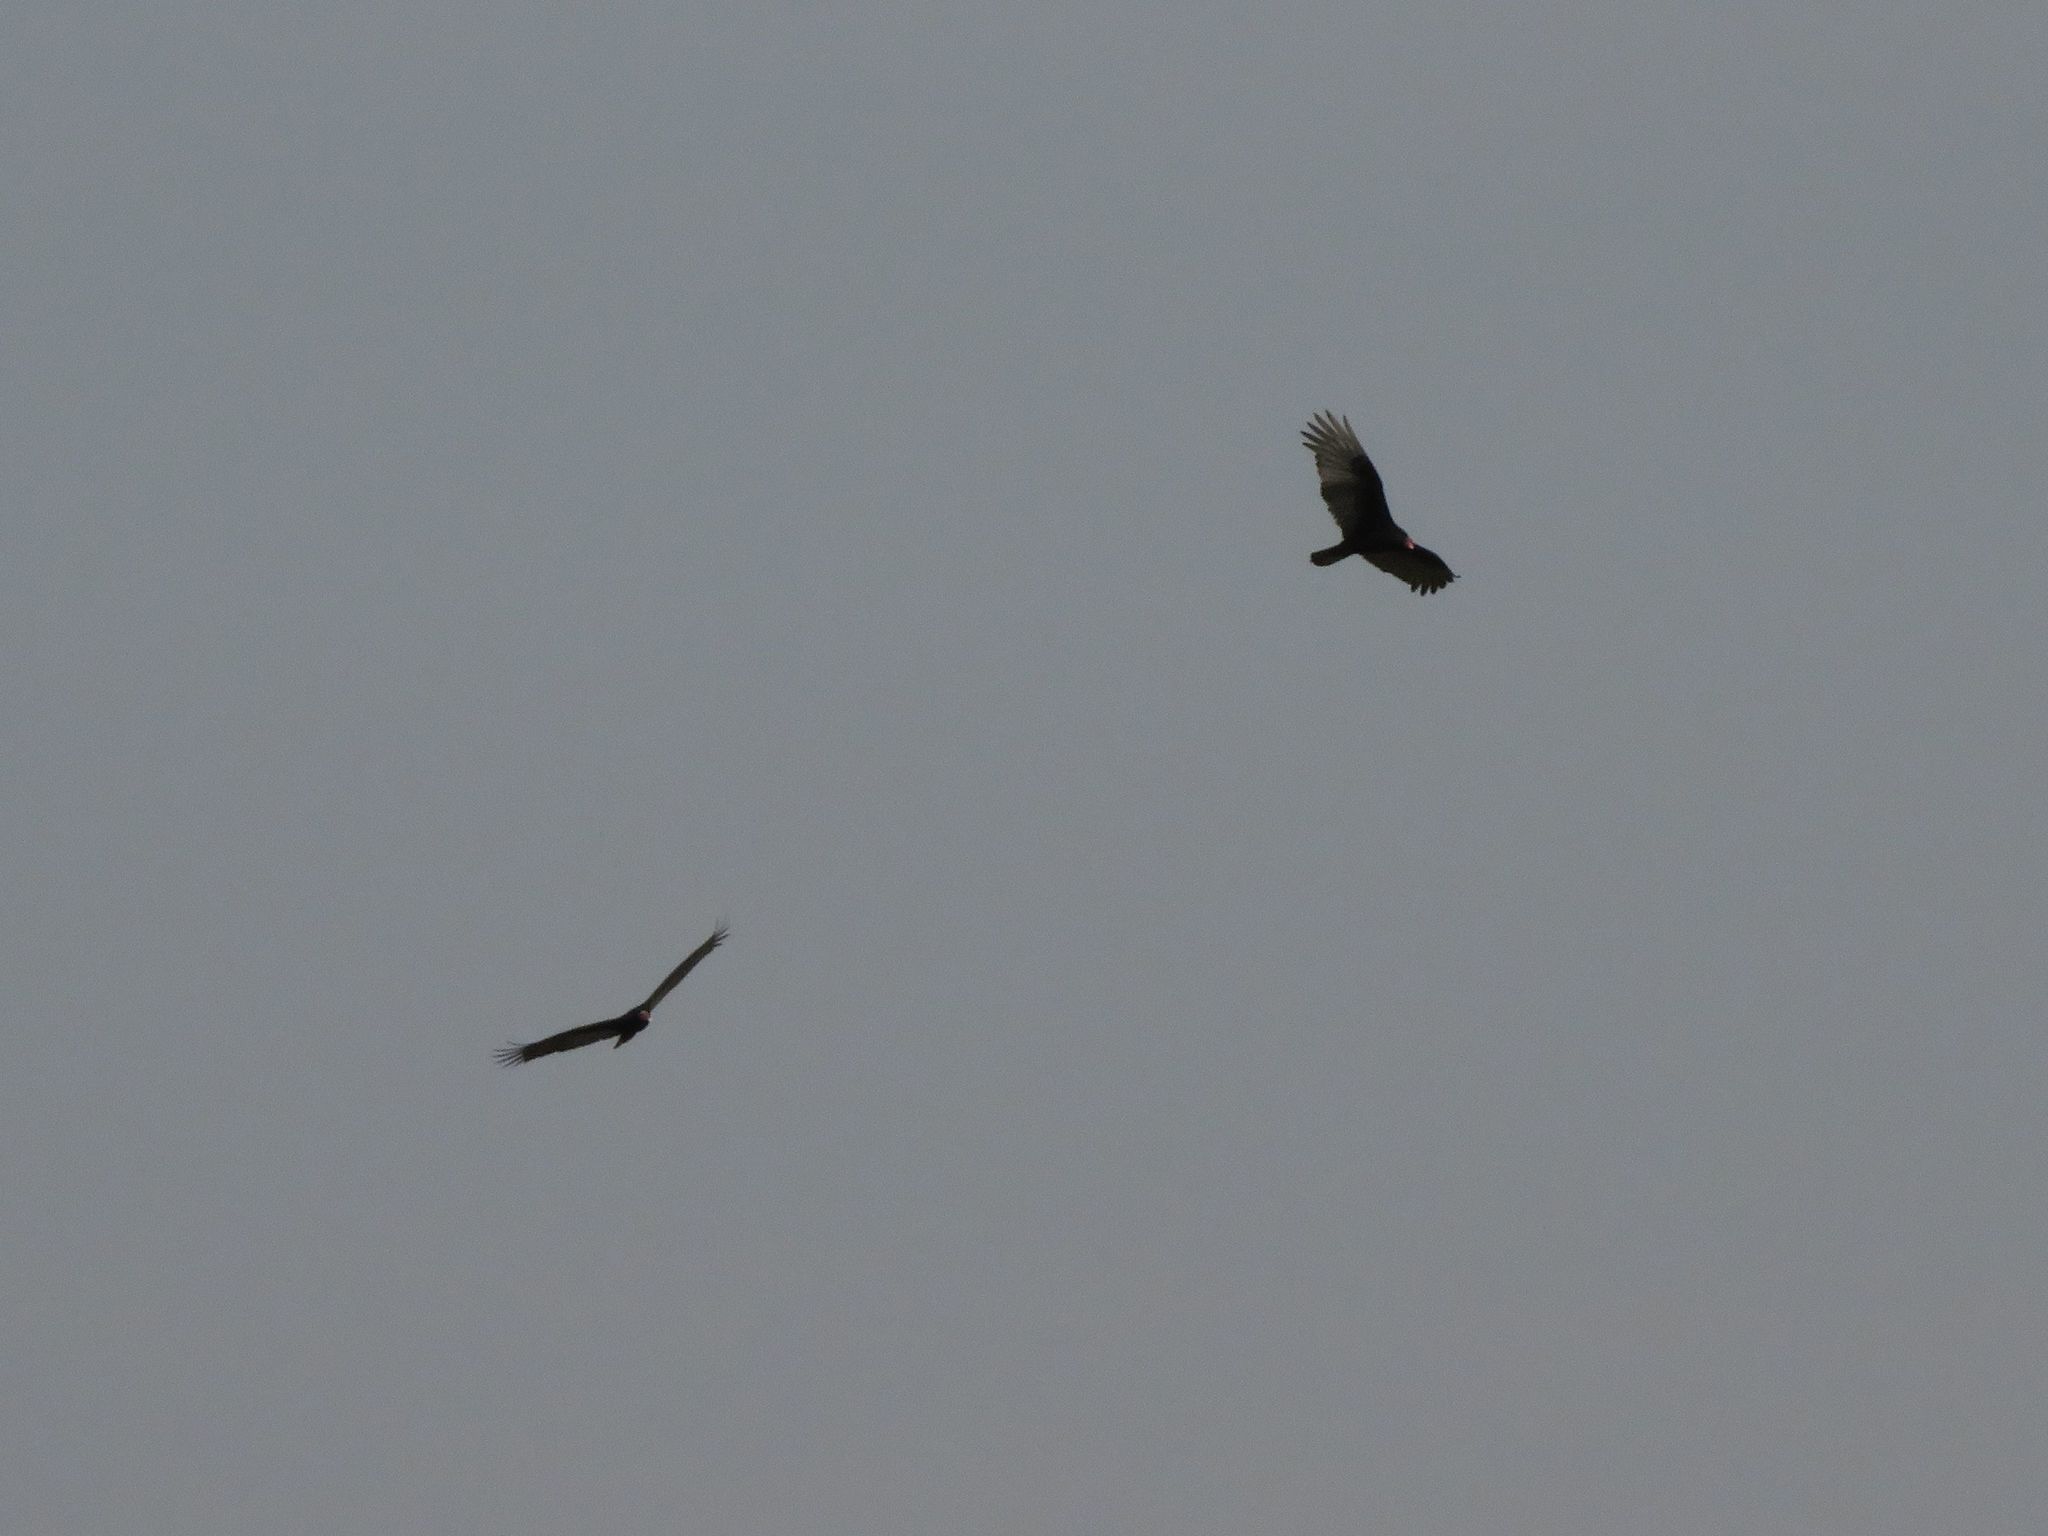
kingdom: Animalia
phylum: Chordata
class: Aves
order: Accipitriformes
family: Cathartidae
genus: Cathartes
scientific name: Cathartes aura
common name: Turkey vulture
